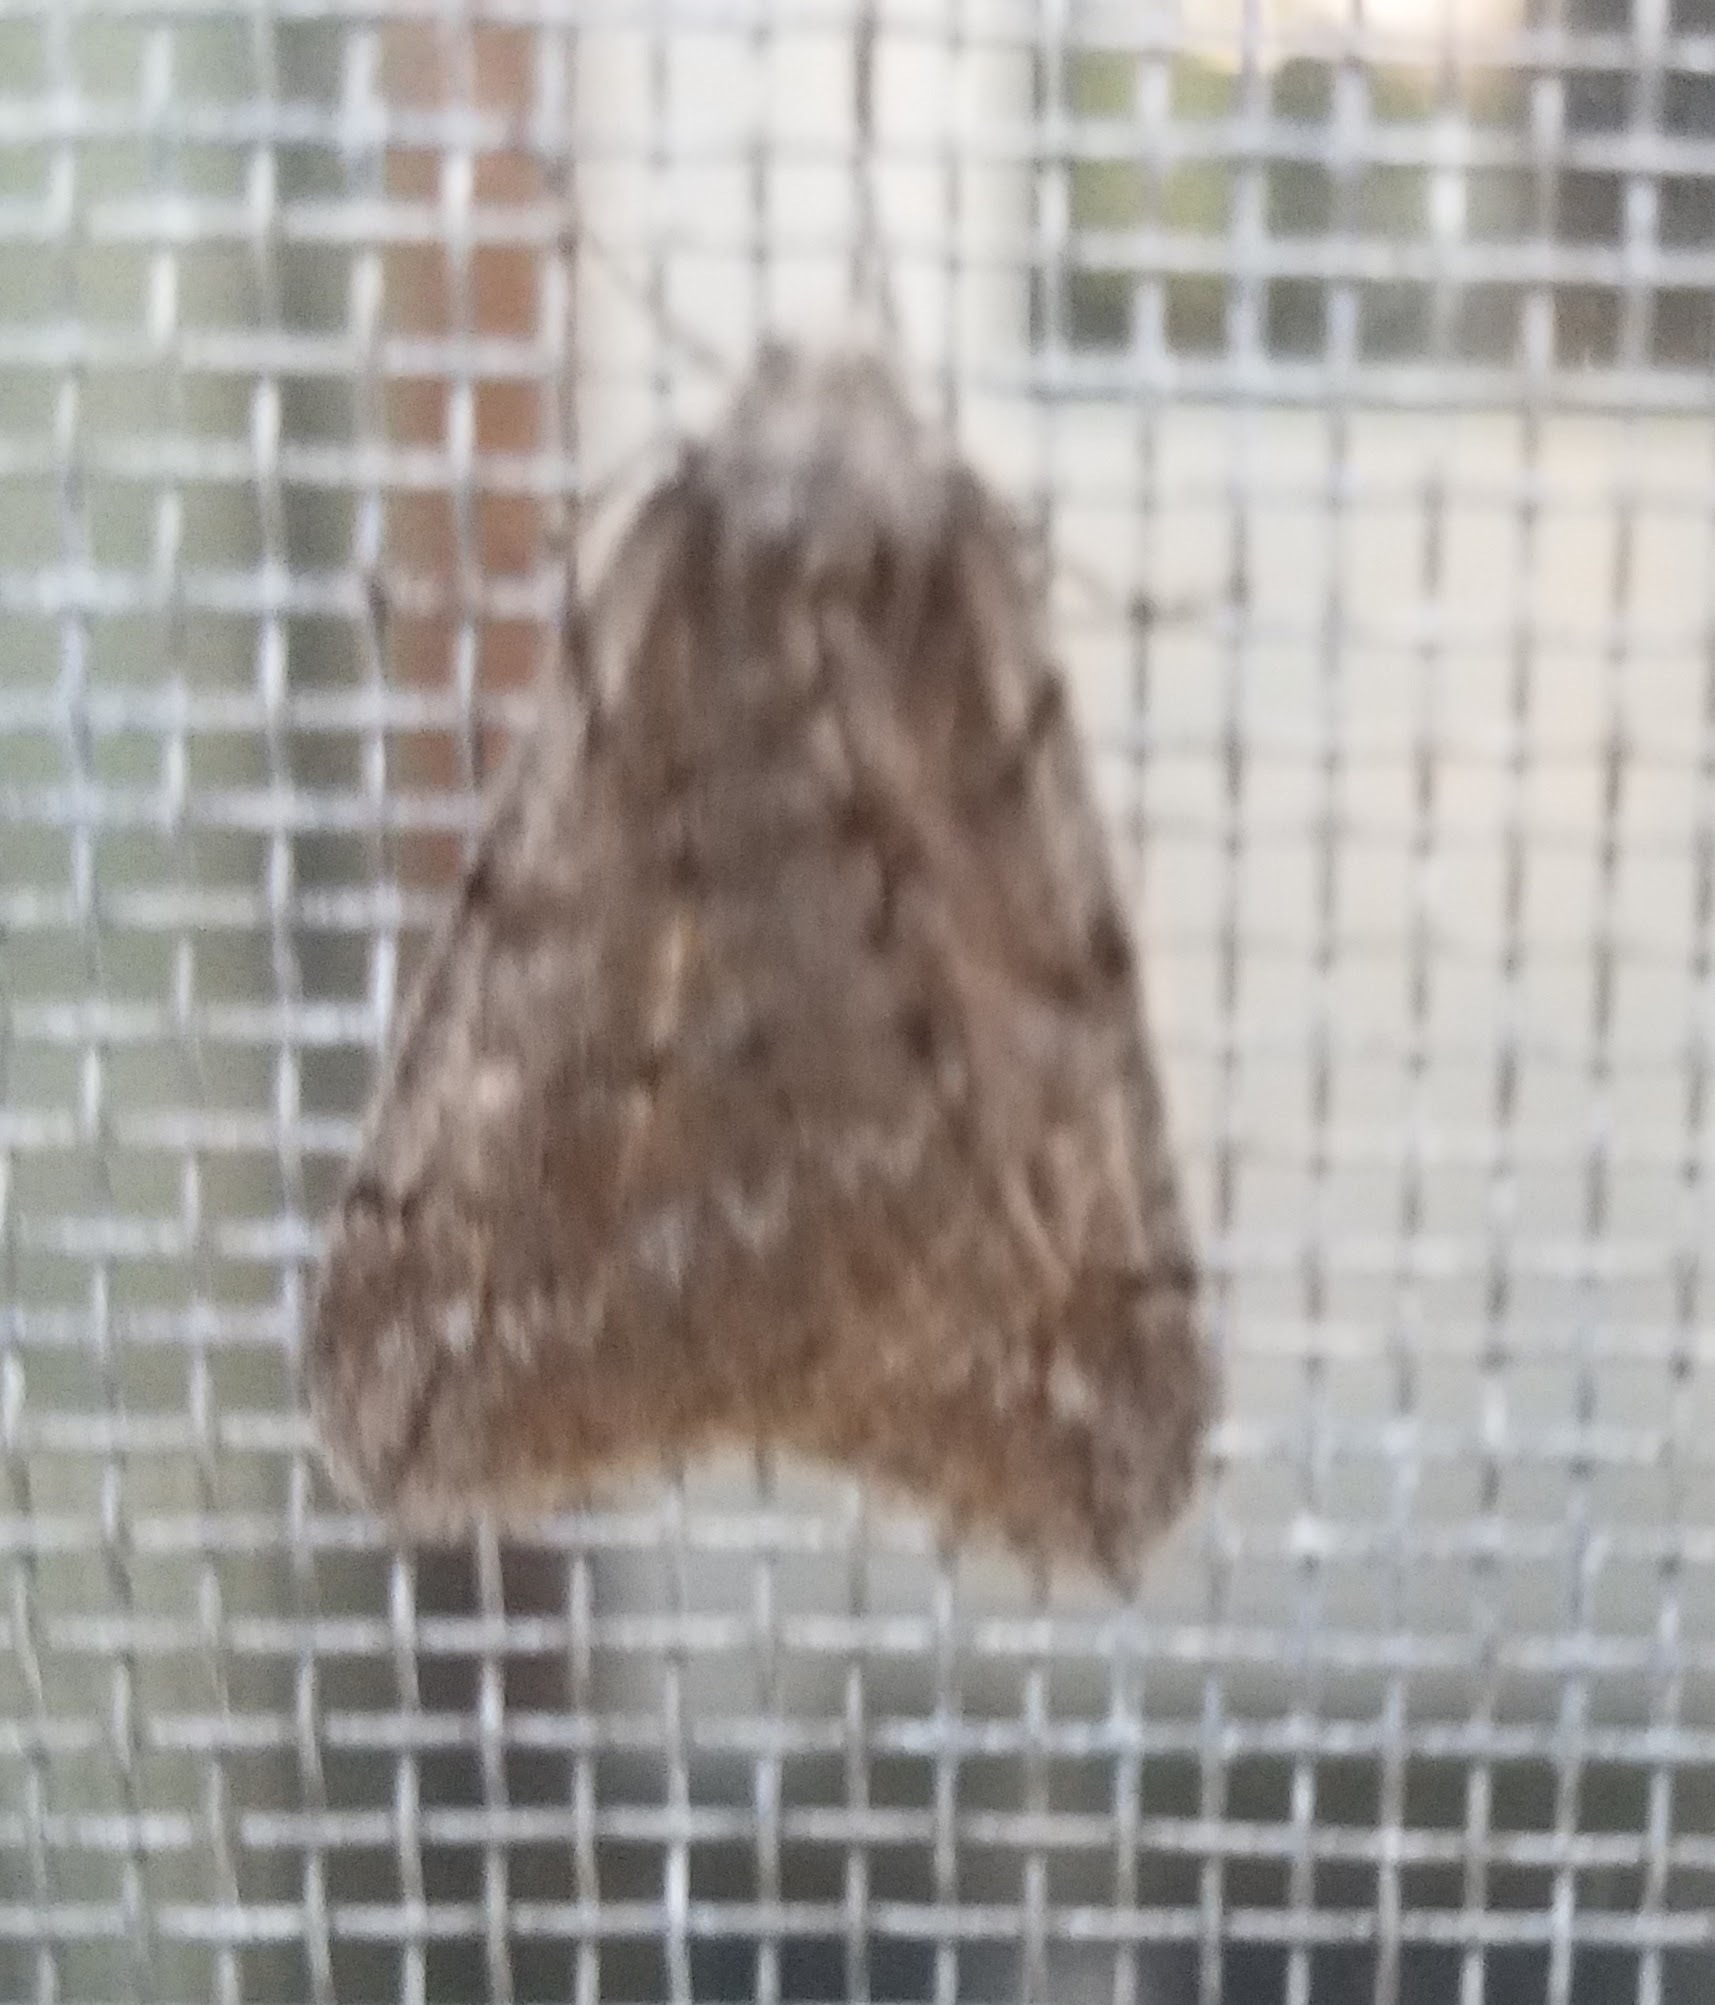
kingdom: Animalia
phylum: Arthropoda
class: Insecta
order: Lepidoptera
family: Geometridae
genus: Paleacrita
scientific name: Paleacrita vernata
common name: Spring cankerworm
